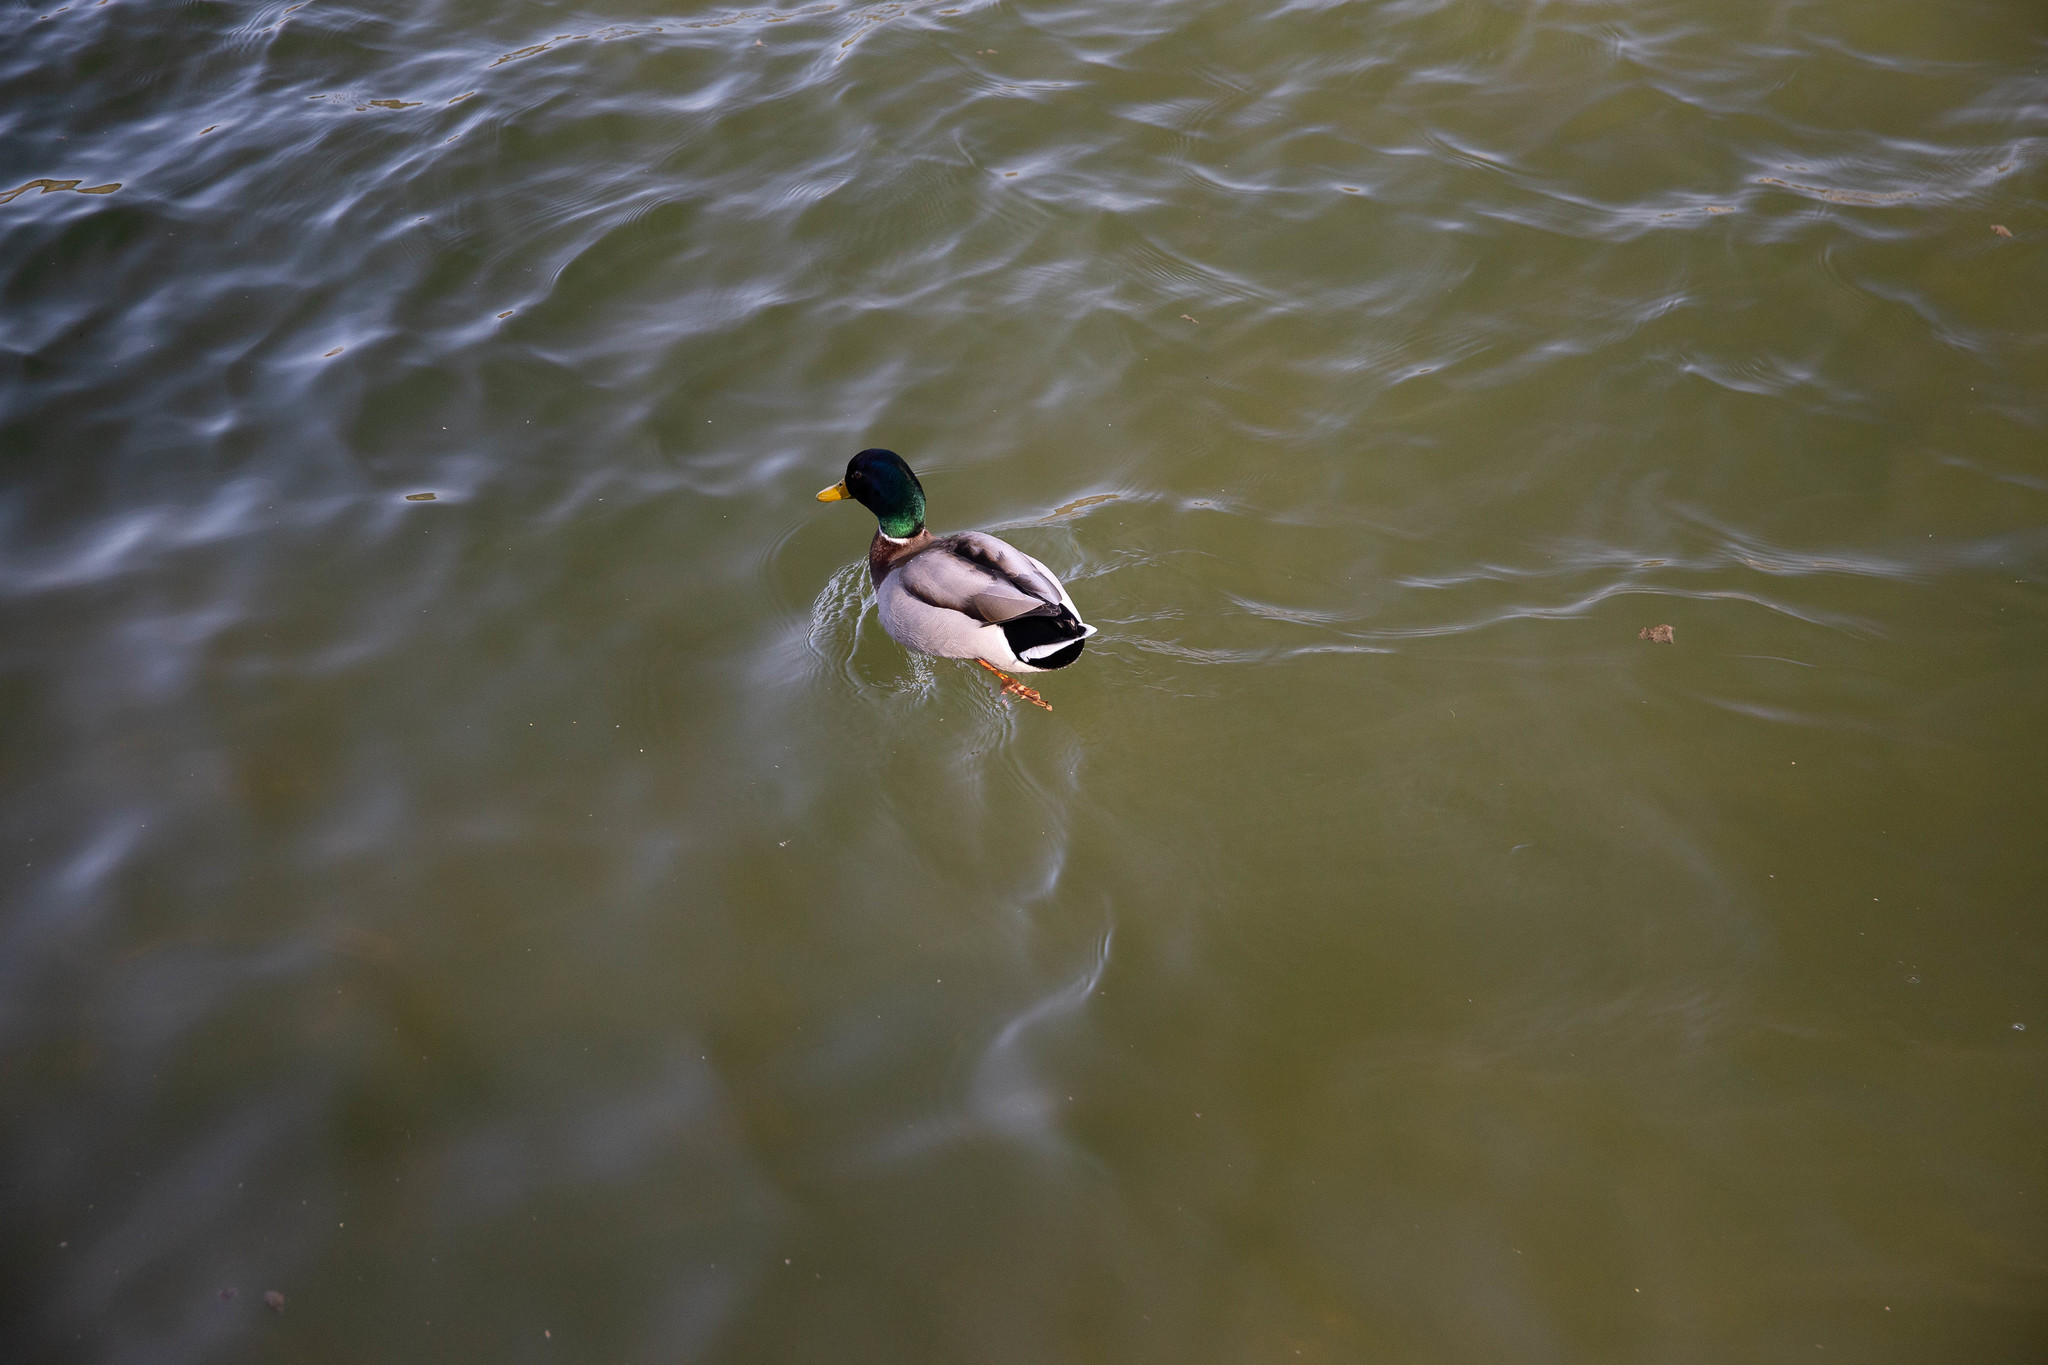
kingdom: Animalia
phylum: Chordata
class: Aves
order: Anseriformes
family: Anatidae
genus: Anas
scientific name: Anas platyrhynchos
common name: Mallard
